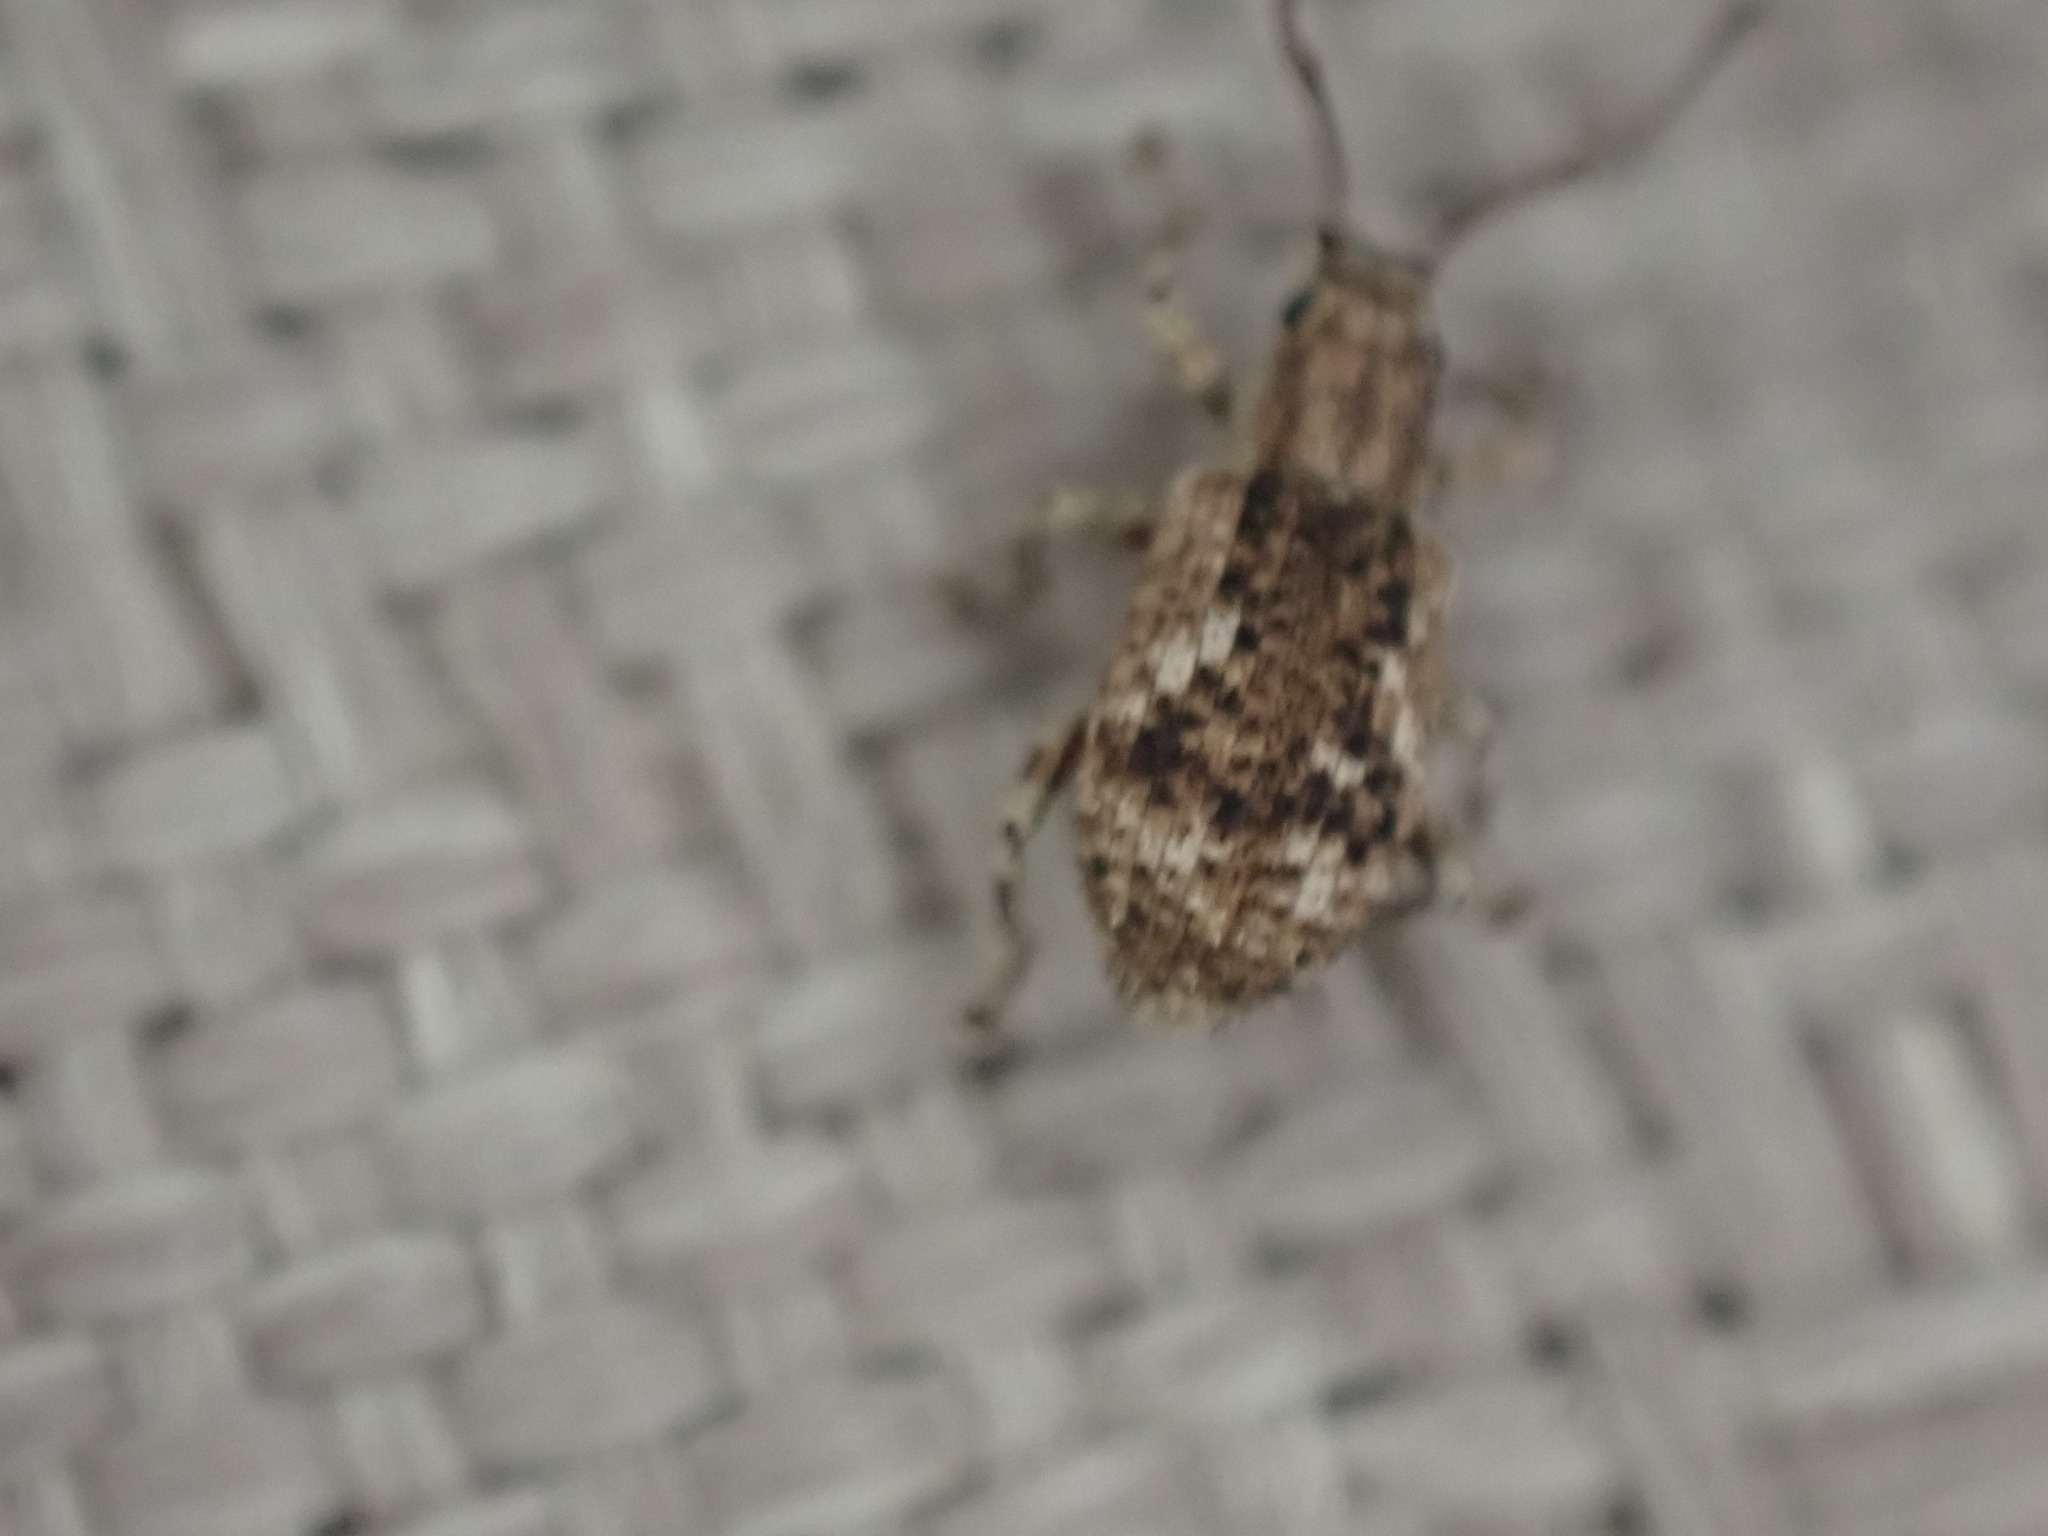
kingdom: Animalia
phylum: Arthropoda
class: Insecta
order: Coleoptera
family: Curculionidae
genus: Pseudoedophrys
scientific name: Pseudoedophrys hilleri
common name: Weevil
